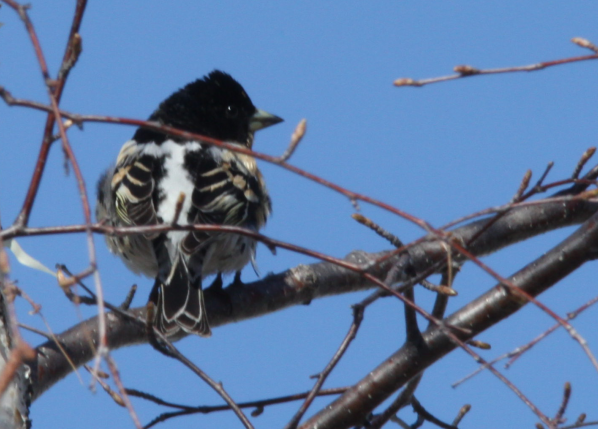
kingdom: Animalia
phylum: Chordata
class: Aves
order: Passeriformes
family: Fringillidae
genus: Fringilla
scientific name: Fringilla montifringilla
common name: Brambling
